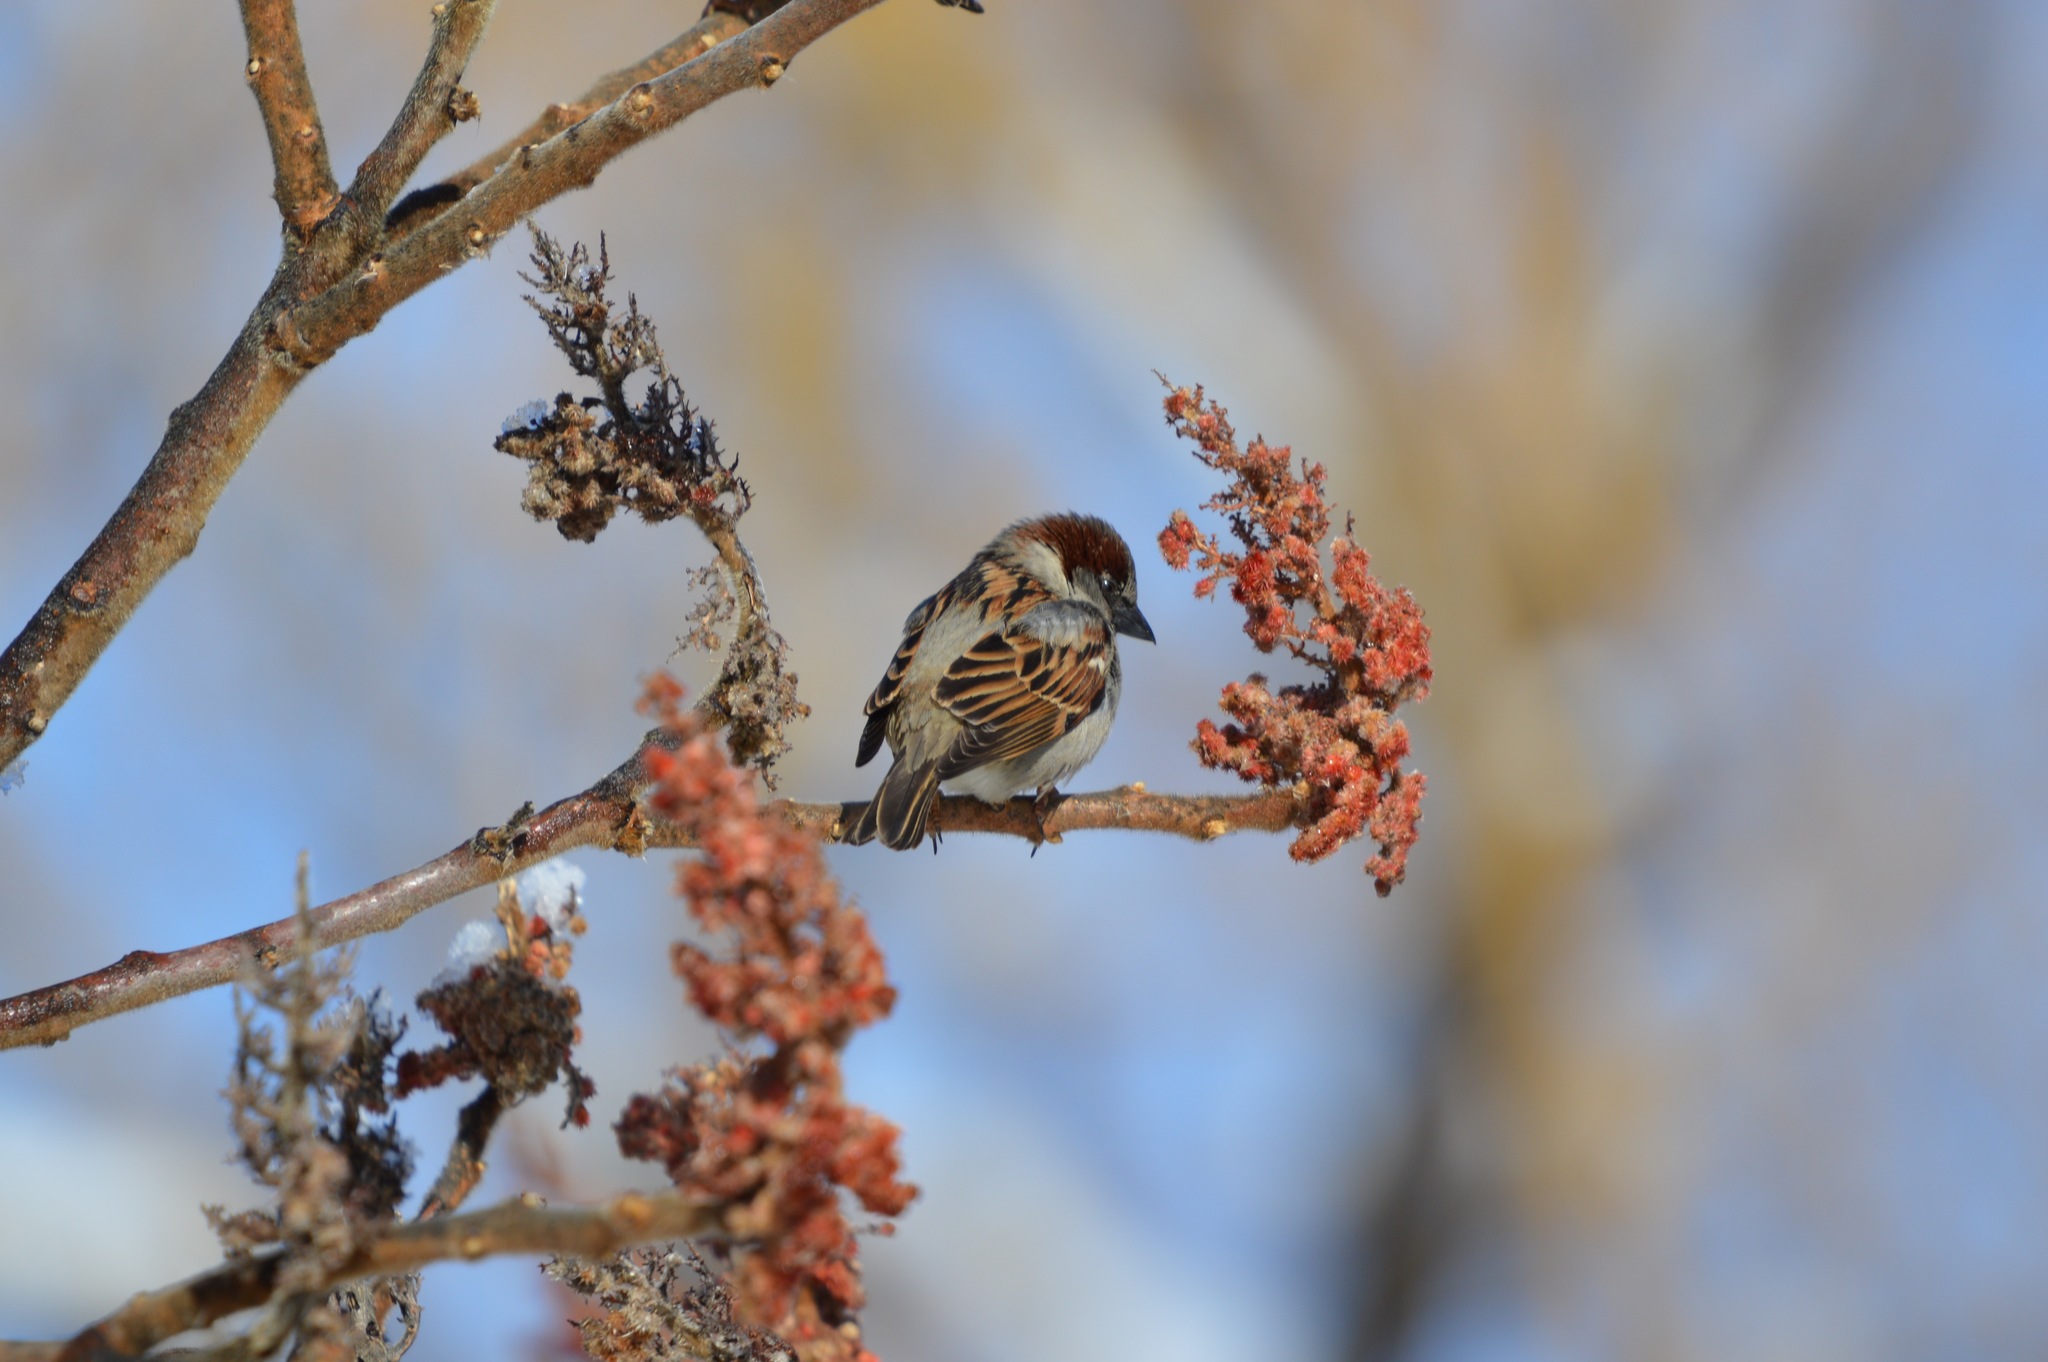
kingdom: Animalia
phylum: Chordata
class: Aves
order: Passeriformes
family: Passeridae
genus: Passer
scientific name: Passer domesticus
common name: House sparrow
